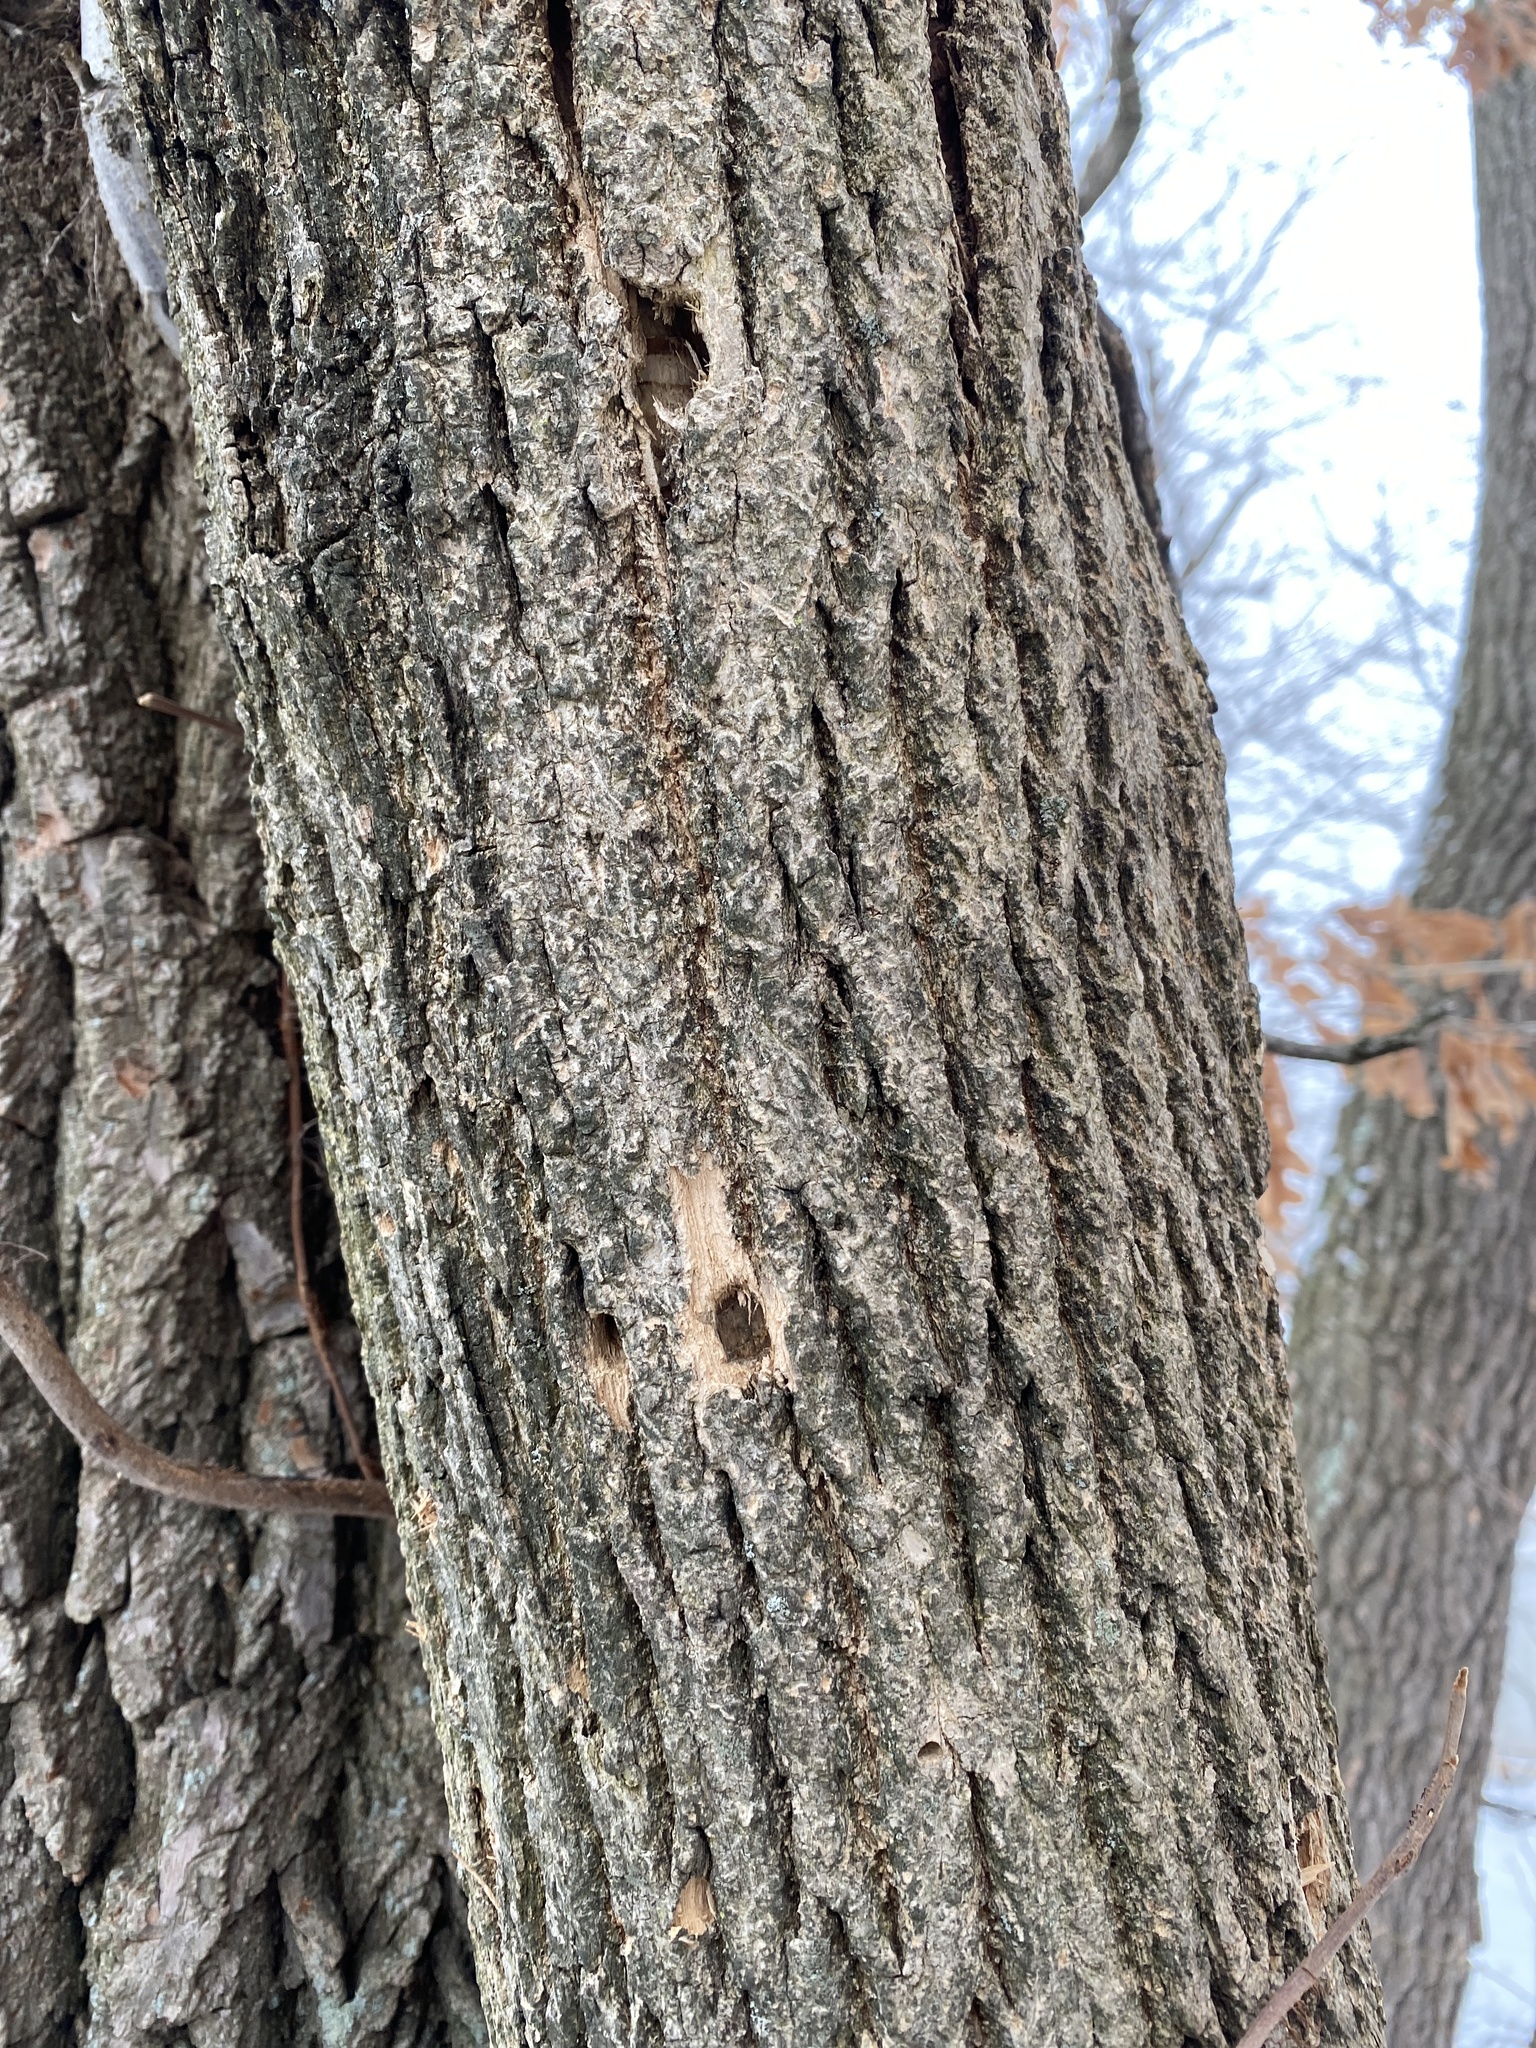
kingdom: Animalia
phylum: Arthropoda
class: Insecta
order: Coleoptera
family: Buprestidae
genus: Agrilus
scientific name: Agrilus planipennis
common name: Emerald ash borer
